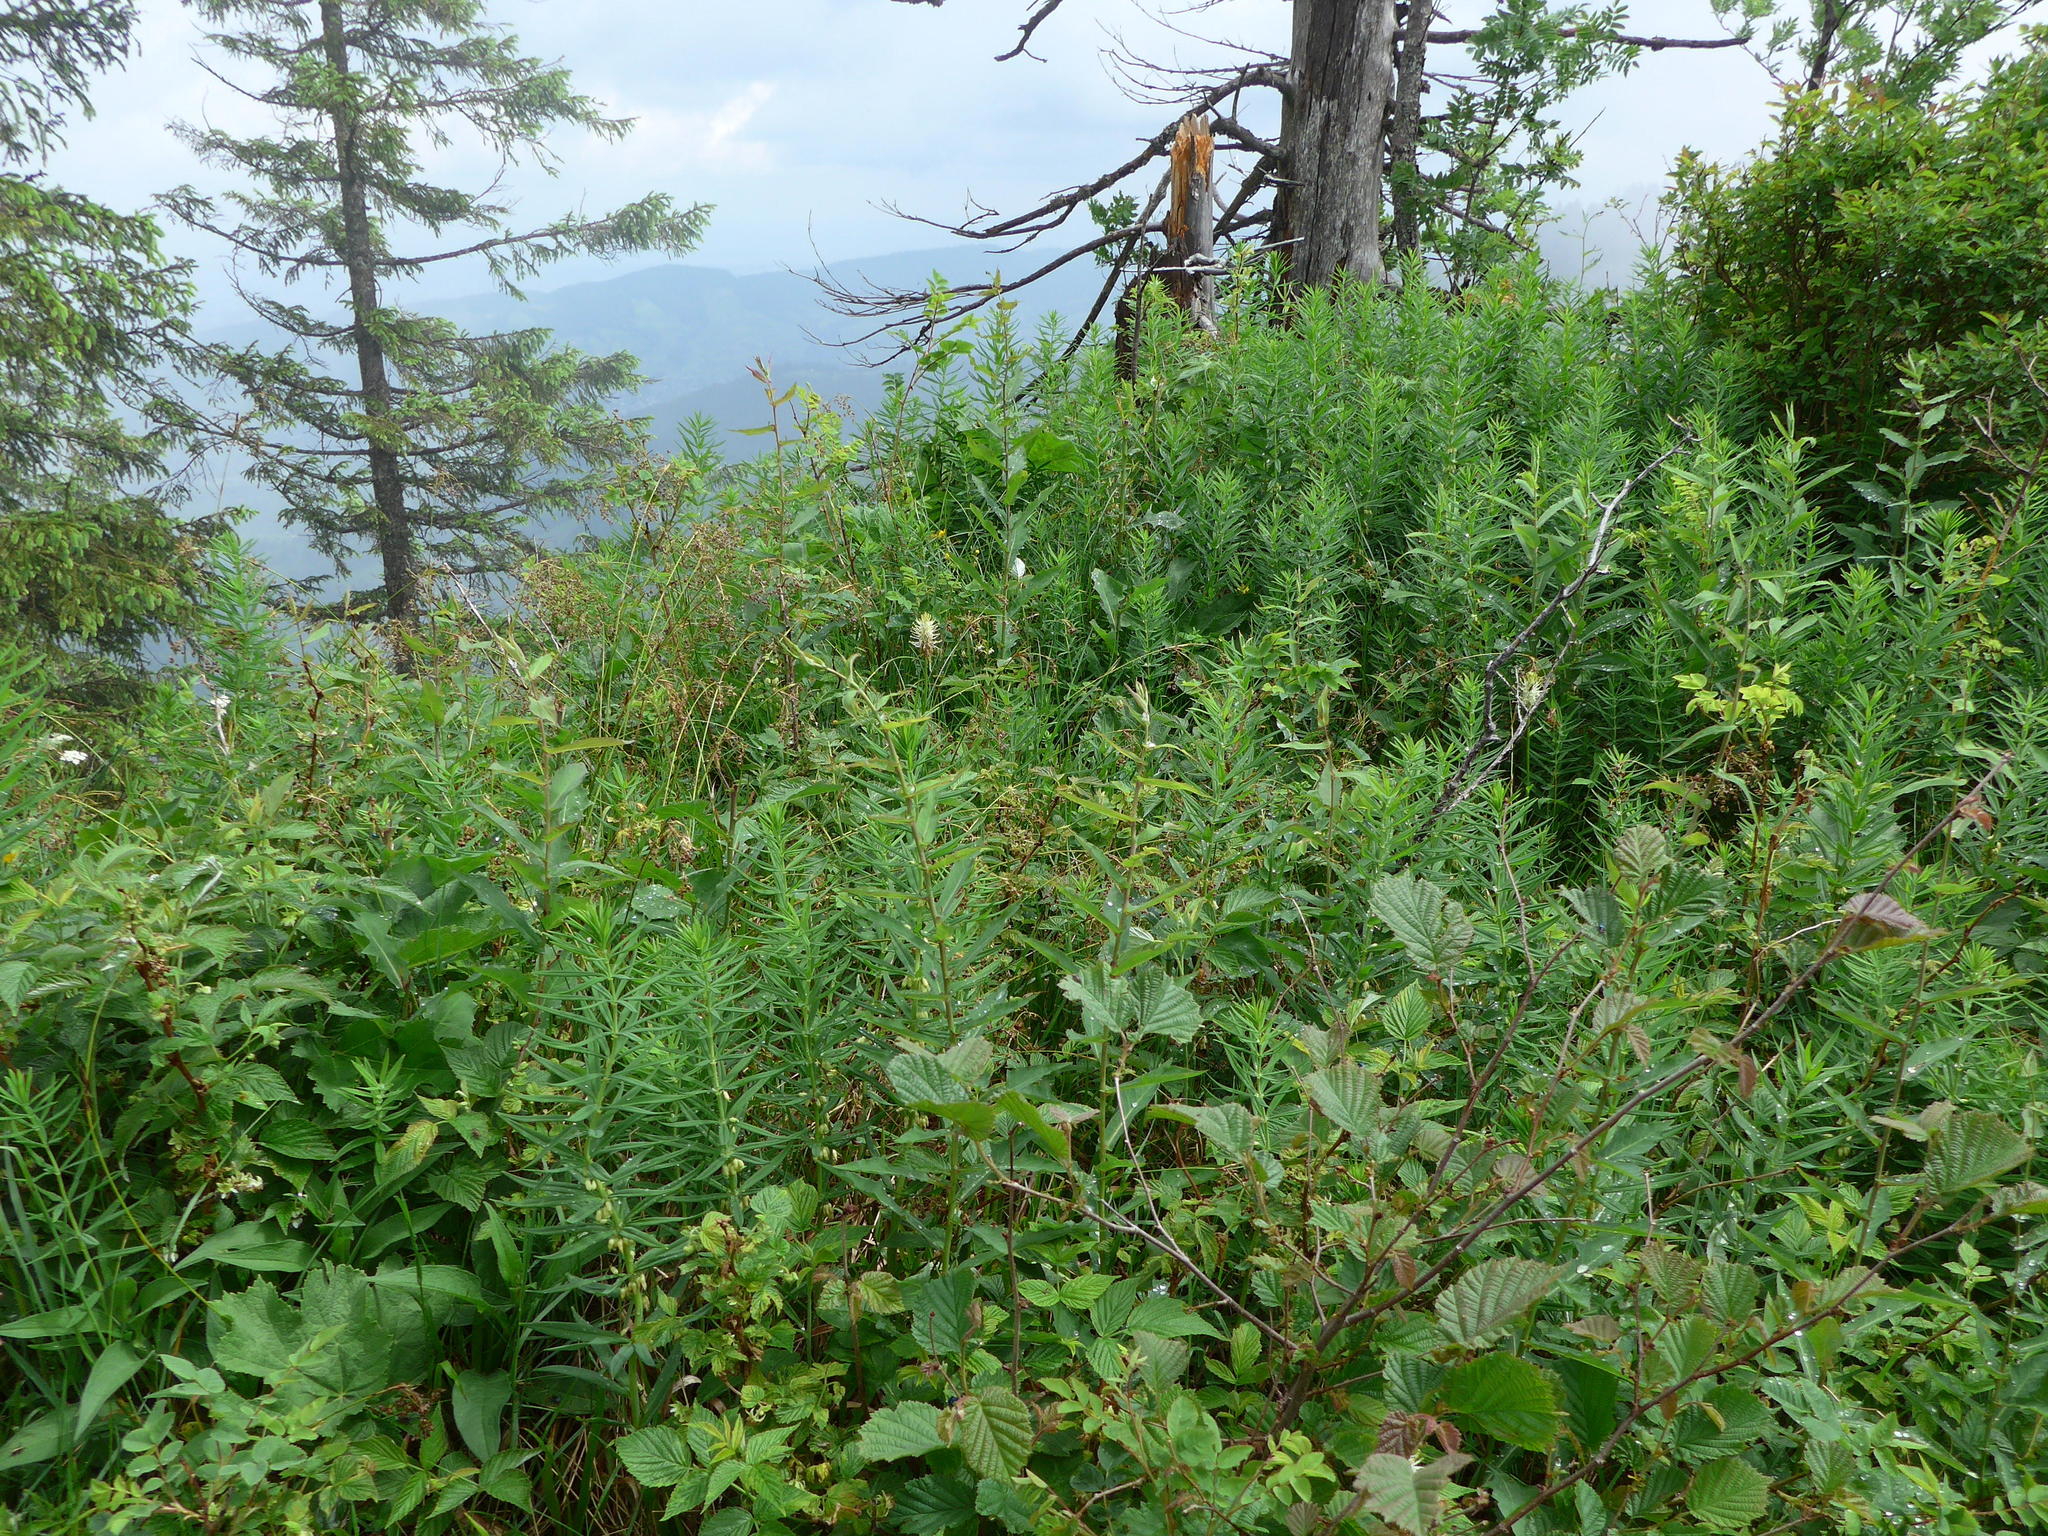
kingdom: Plantae
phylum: Tracheophyta
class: Liliopsida
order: Asparagales
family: Asparagaceae
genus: Polygonatum
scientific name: Polygonatum verticillatum
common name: Whorled solomon's-seal
